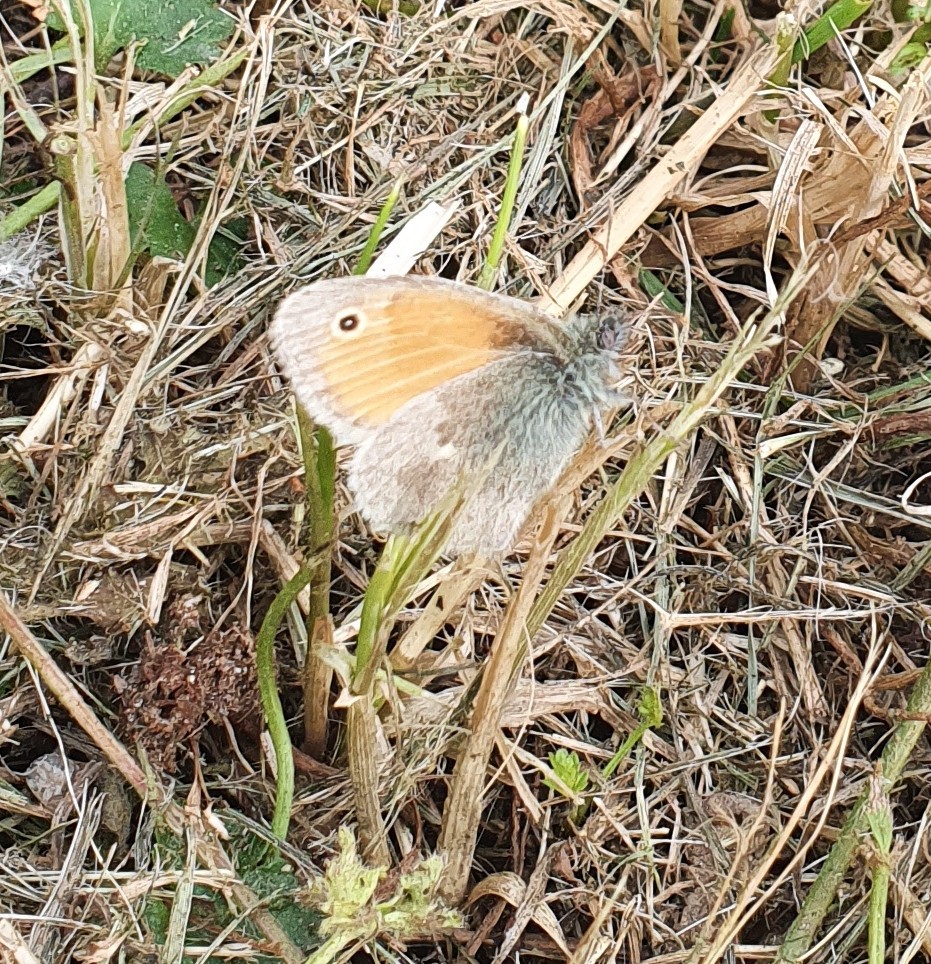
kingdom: Animalia
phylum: Arthropoda
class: Insecta
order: Lepidoptera
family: Nymphalidae
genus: Coenonympha
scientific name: Coenonympha pamphilus
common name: Small heath
